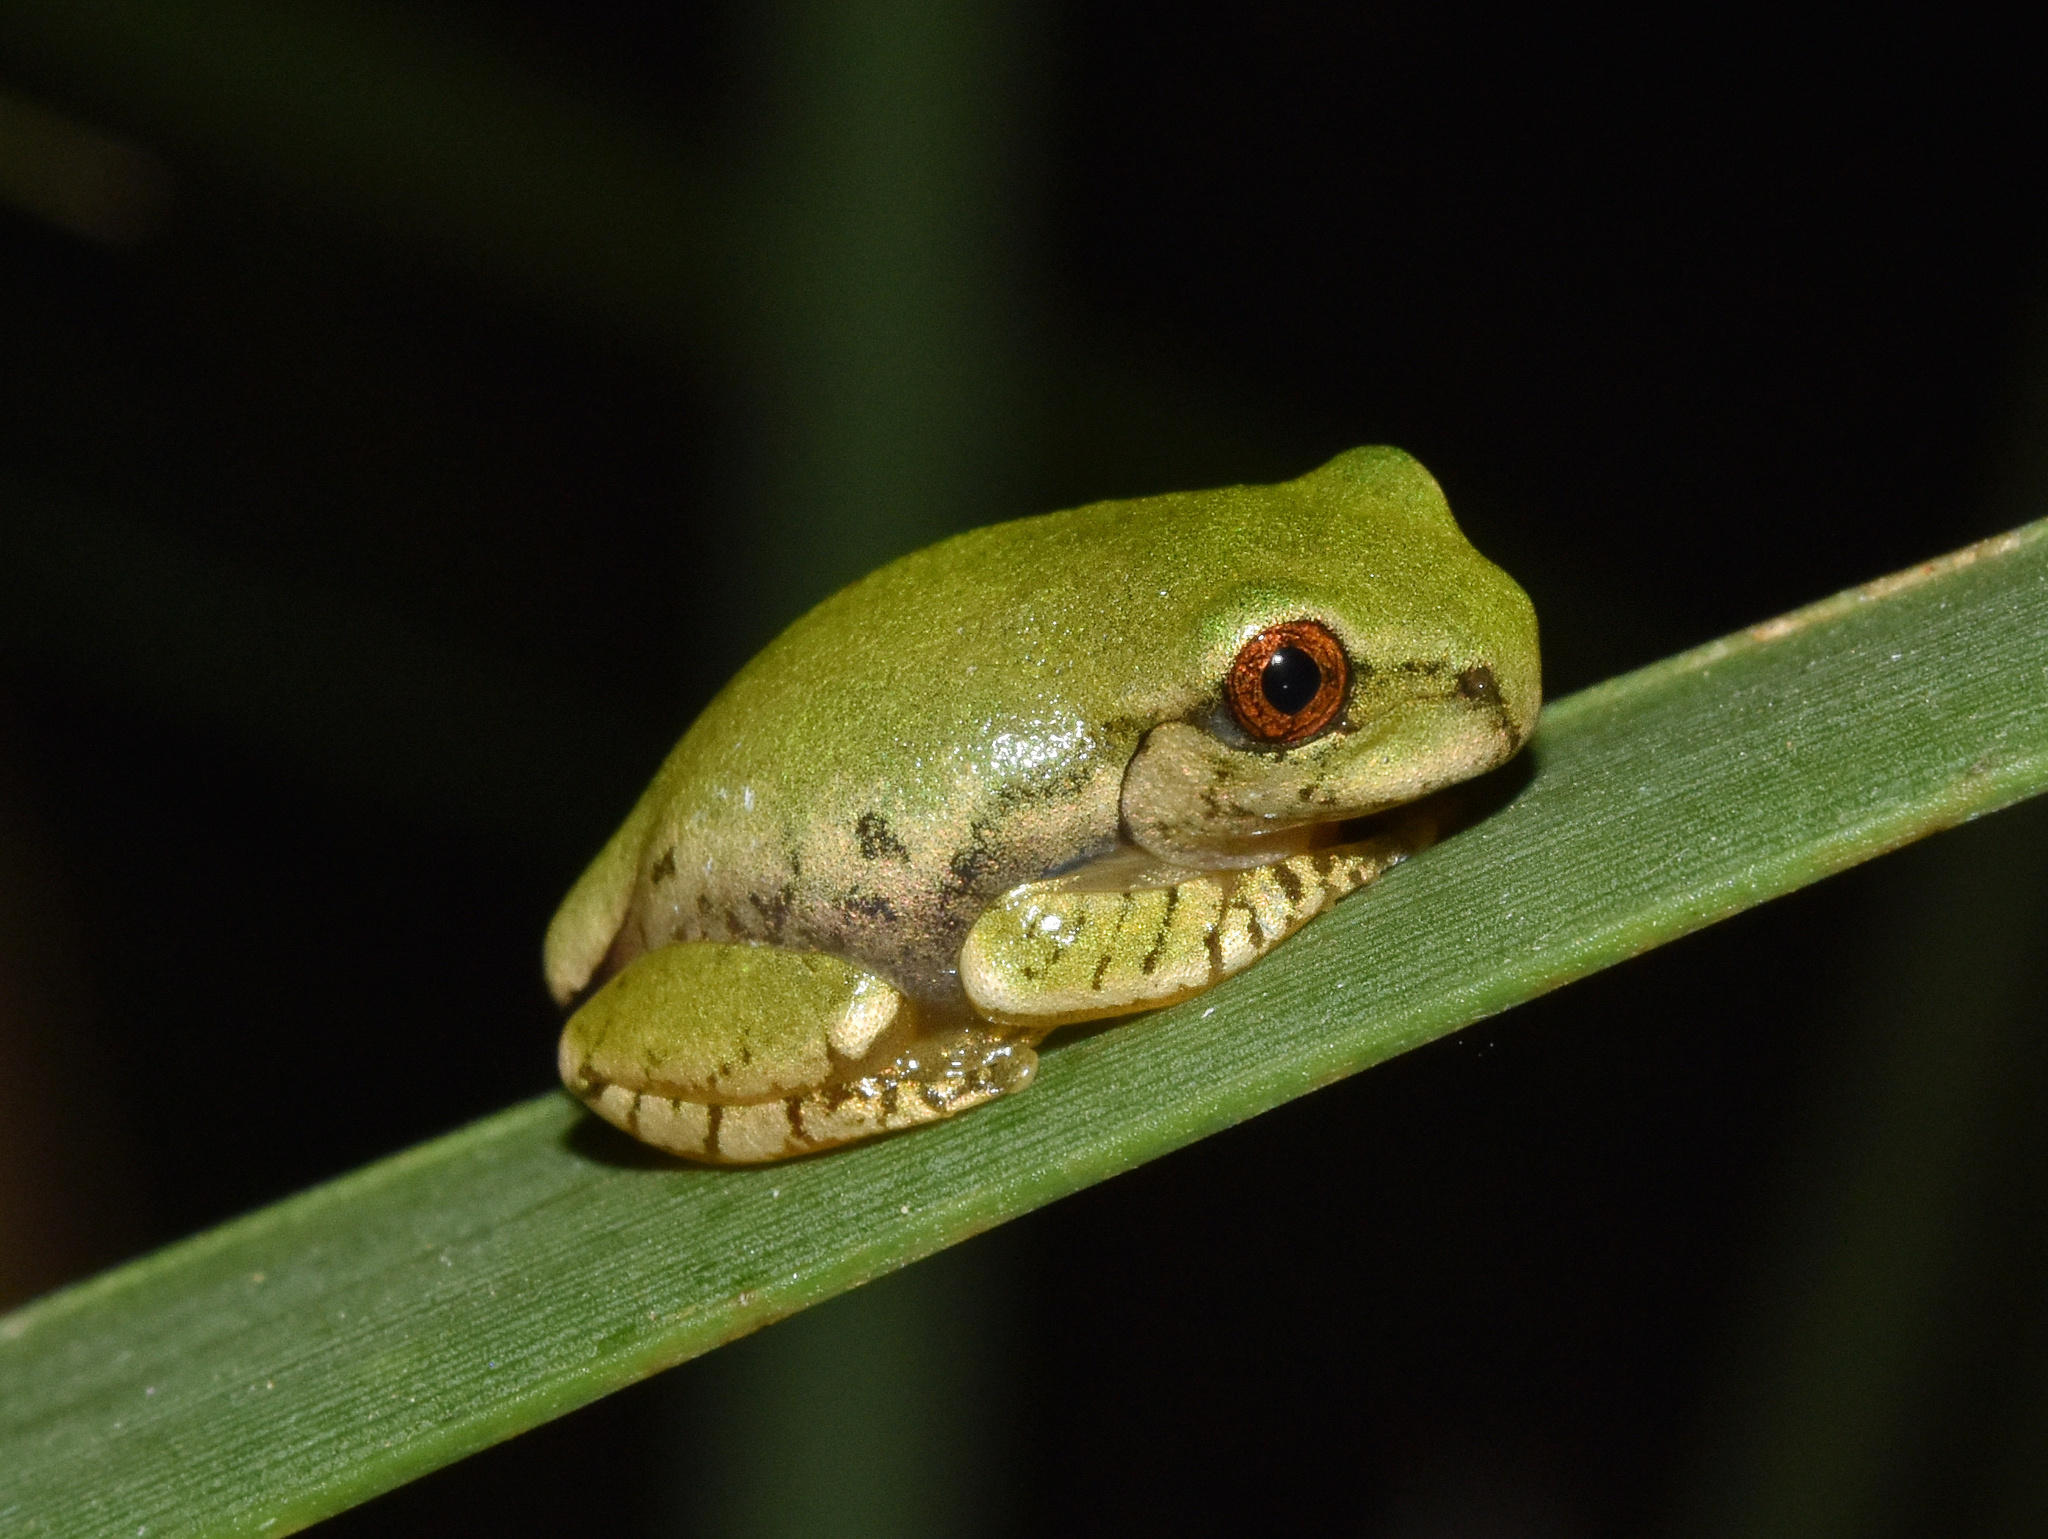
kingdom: Animalia
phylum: Chordata
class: Amphibia
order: Anura
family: Arthroleptidae
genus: Leptopelis
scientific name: Leptopelis natalensis
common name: Natal tree frog
